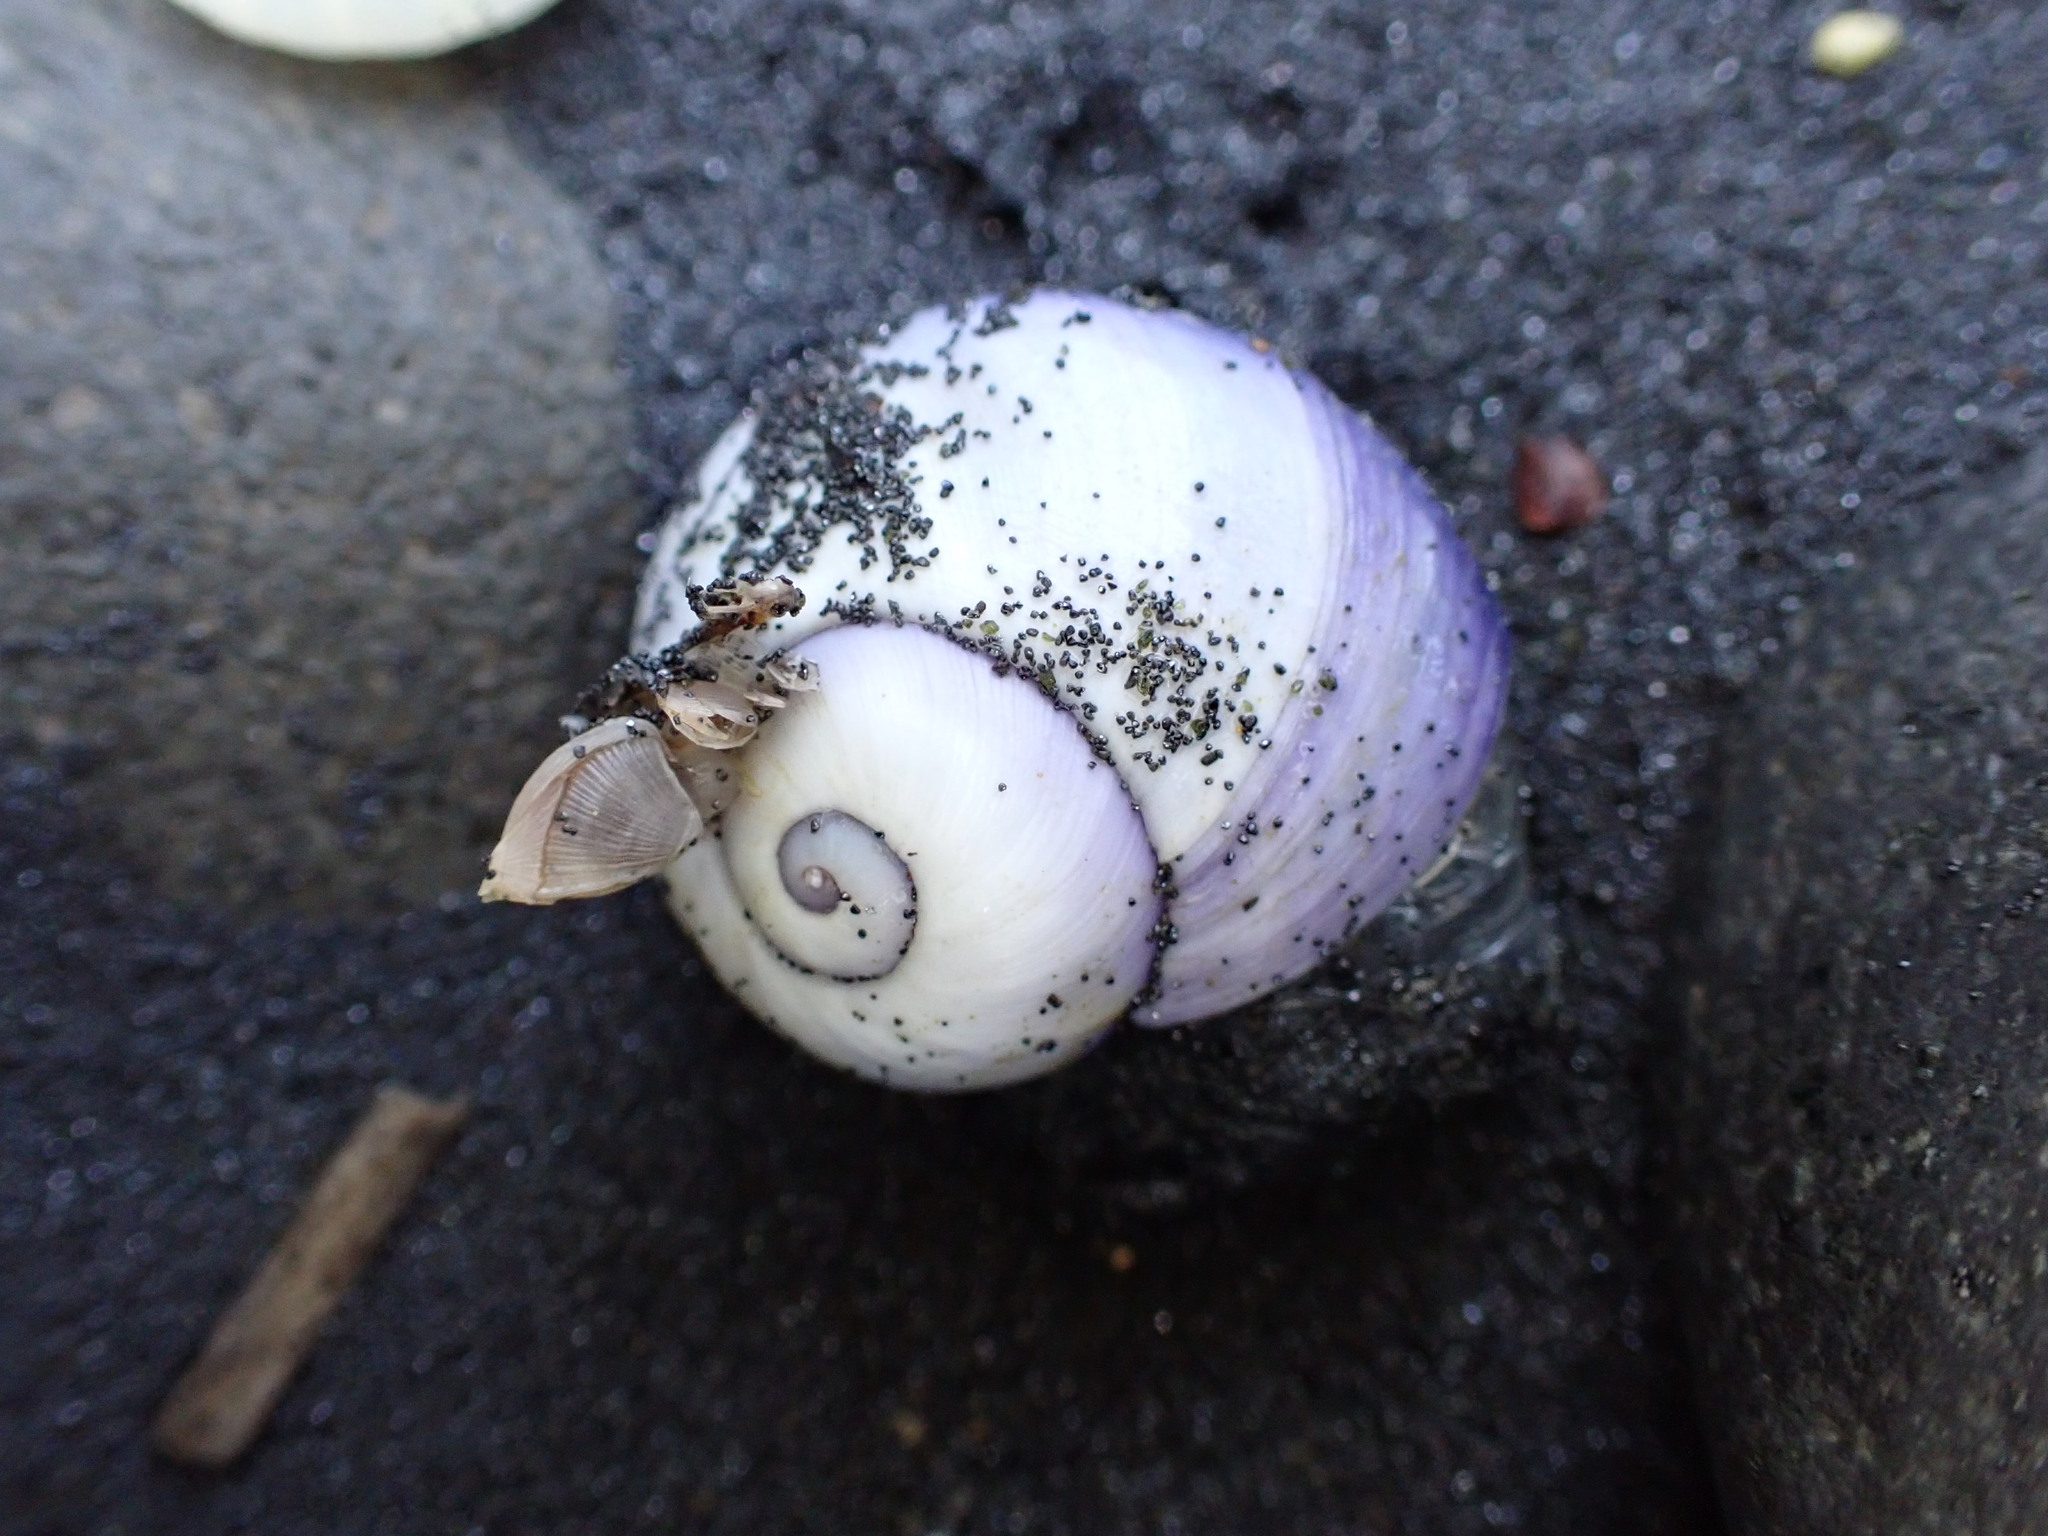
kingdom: Animalia
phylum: Mollusca
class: Gastropoda
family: Epitoniidae
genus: Janthina
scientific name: Janthina janthina
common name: Common janthina
